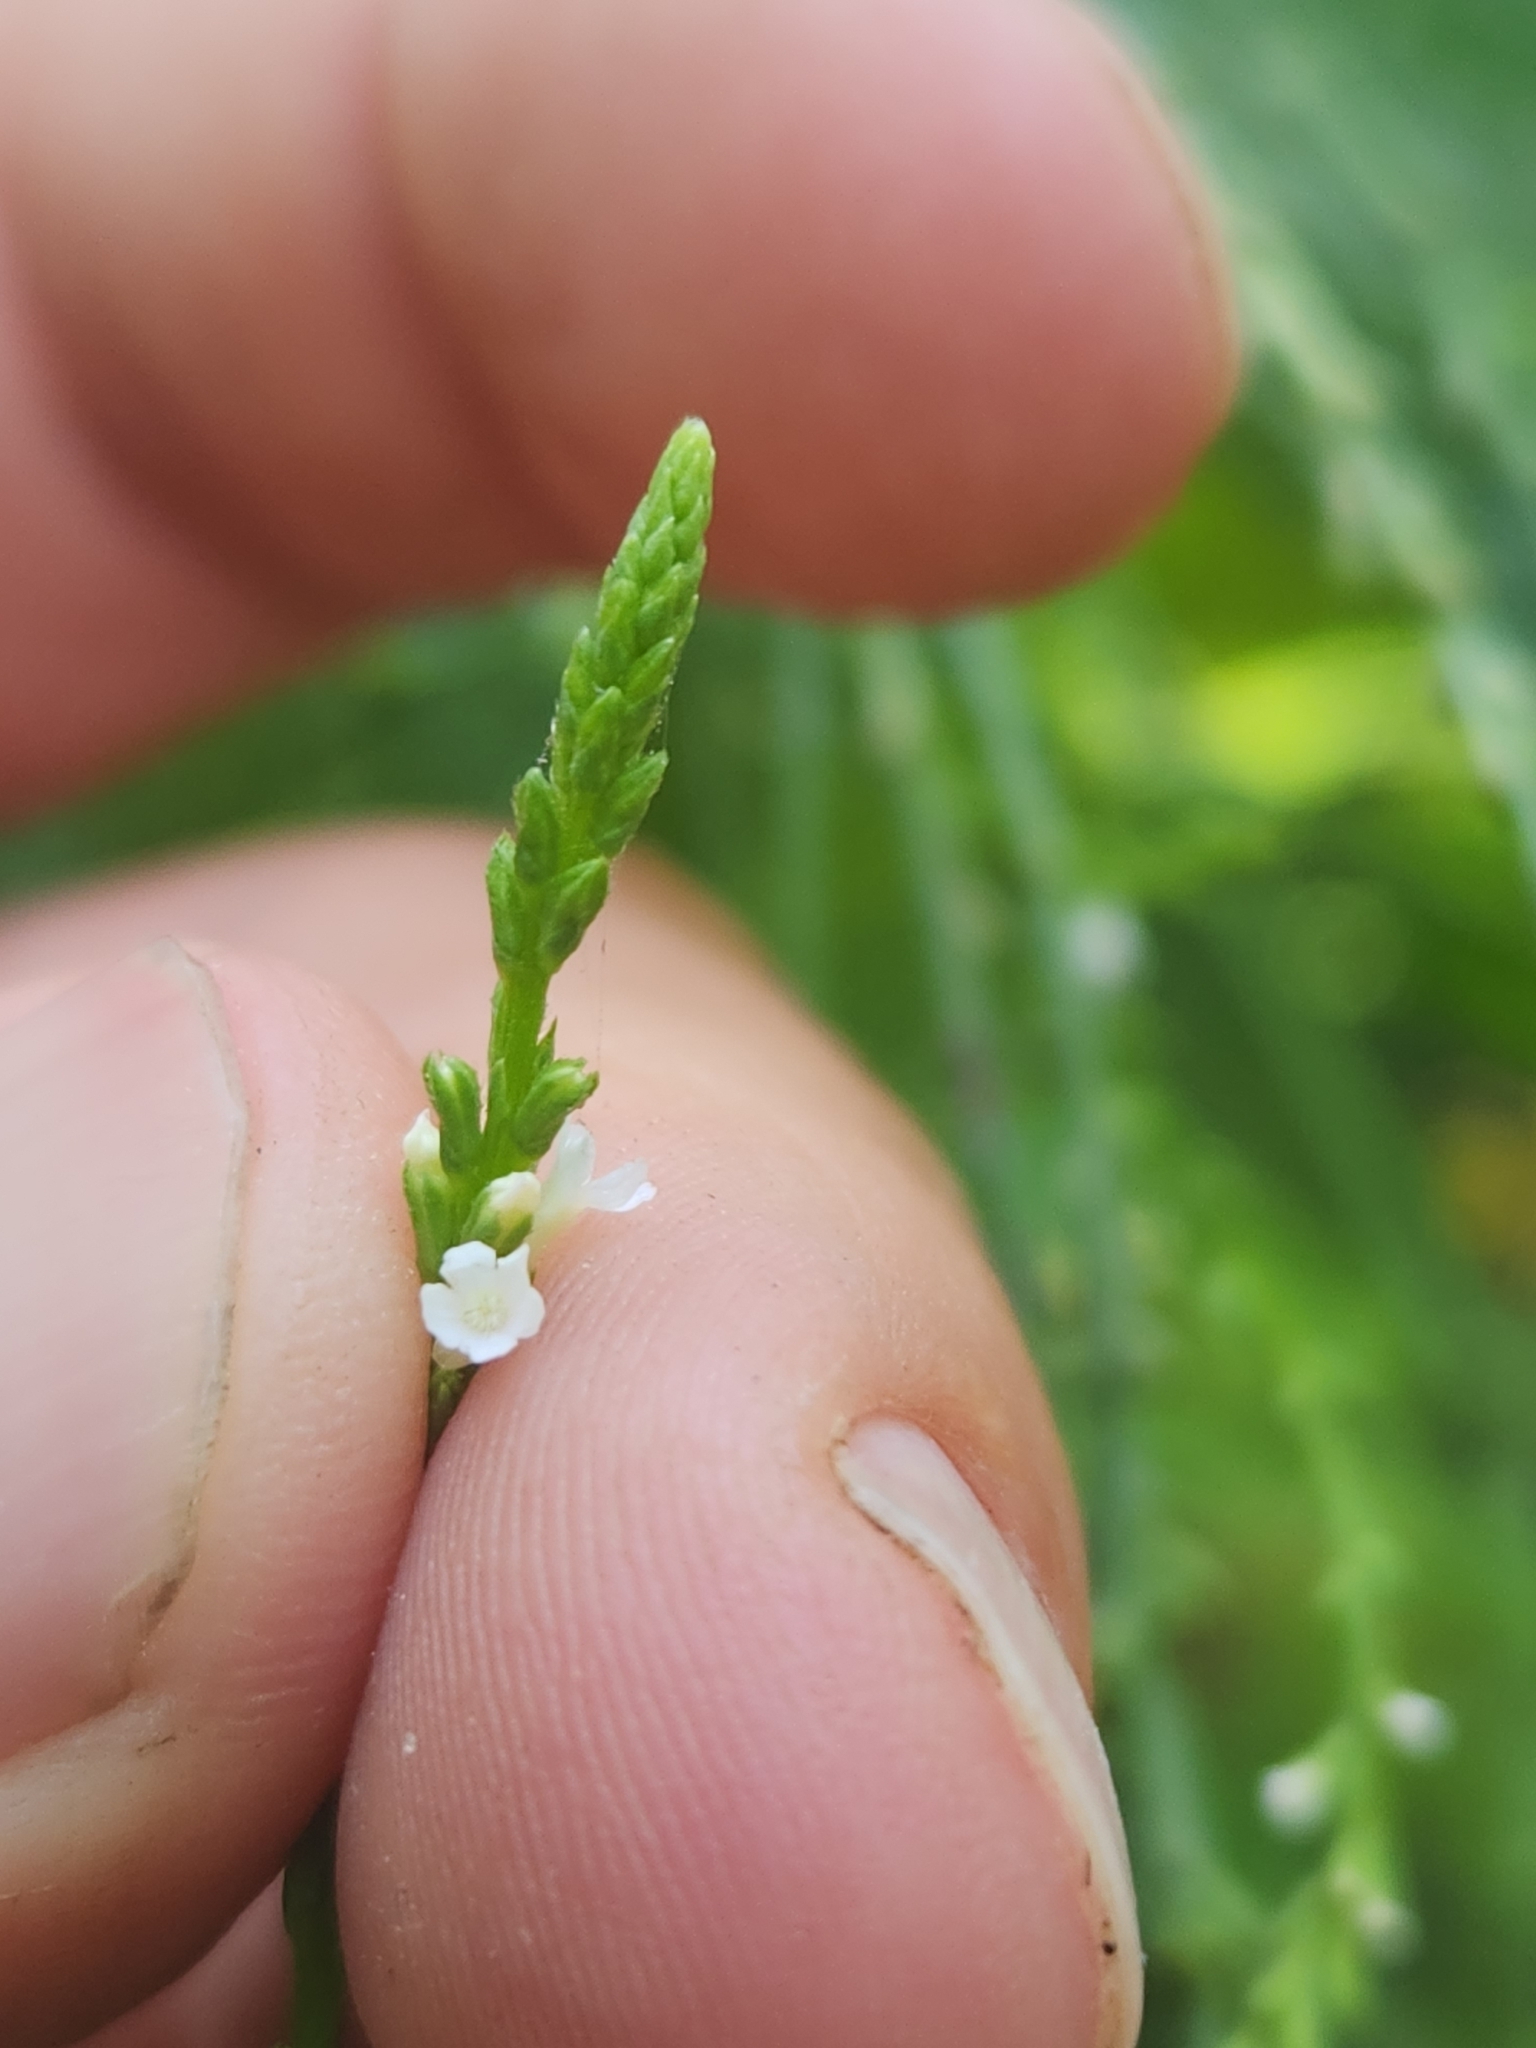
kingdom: Plantae
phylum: Tracheophyta
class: Magnoliopsida
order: Lamiales
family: Verbenaceae
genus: Verbena
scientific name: Verbena urticifolia
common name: Nettle-leaved vervain
